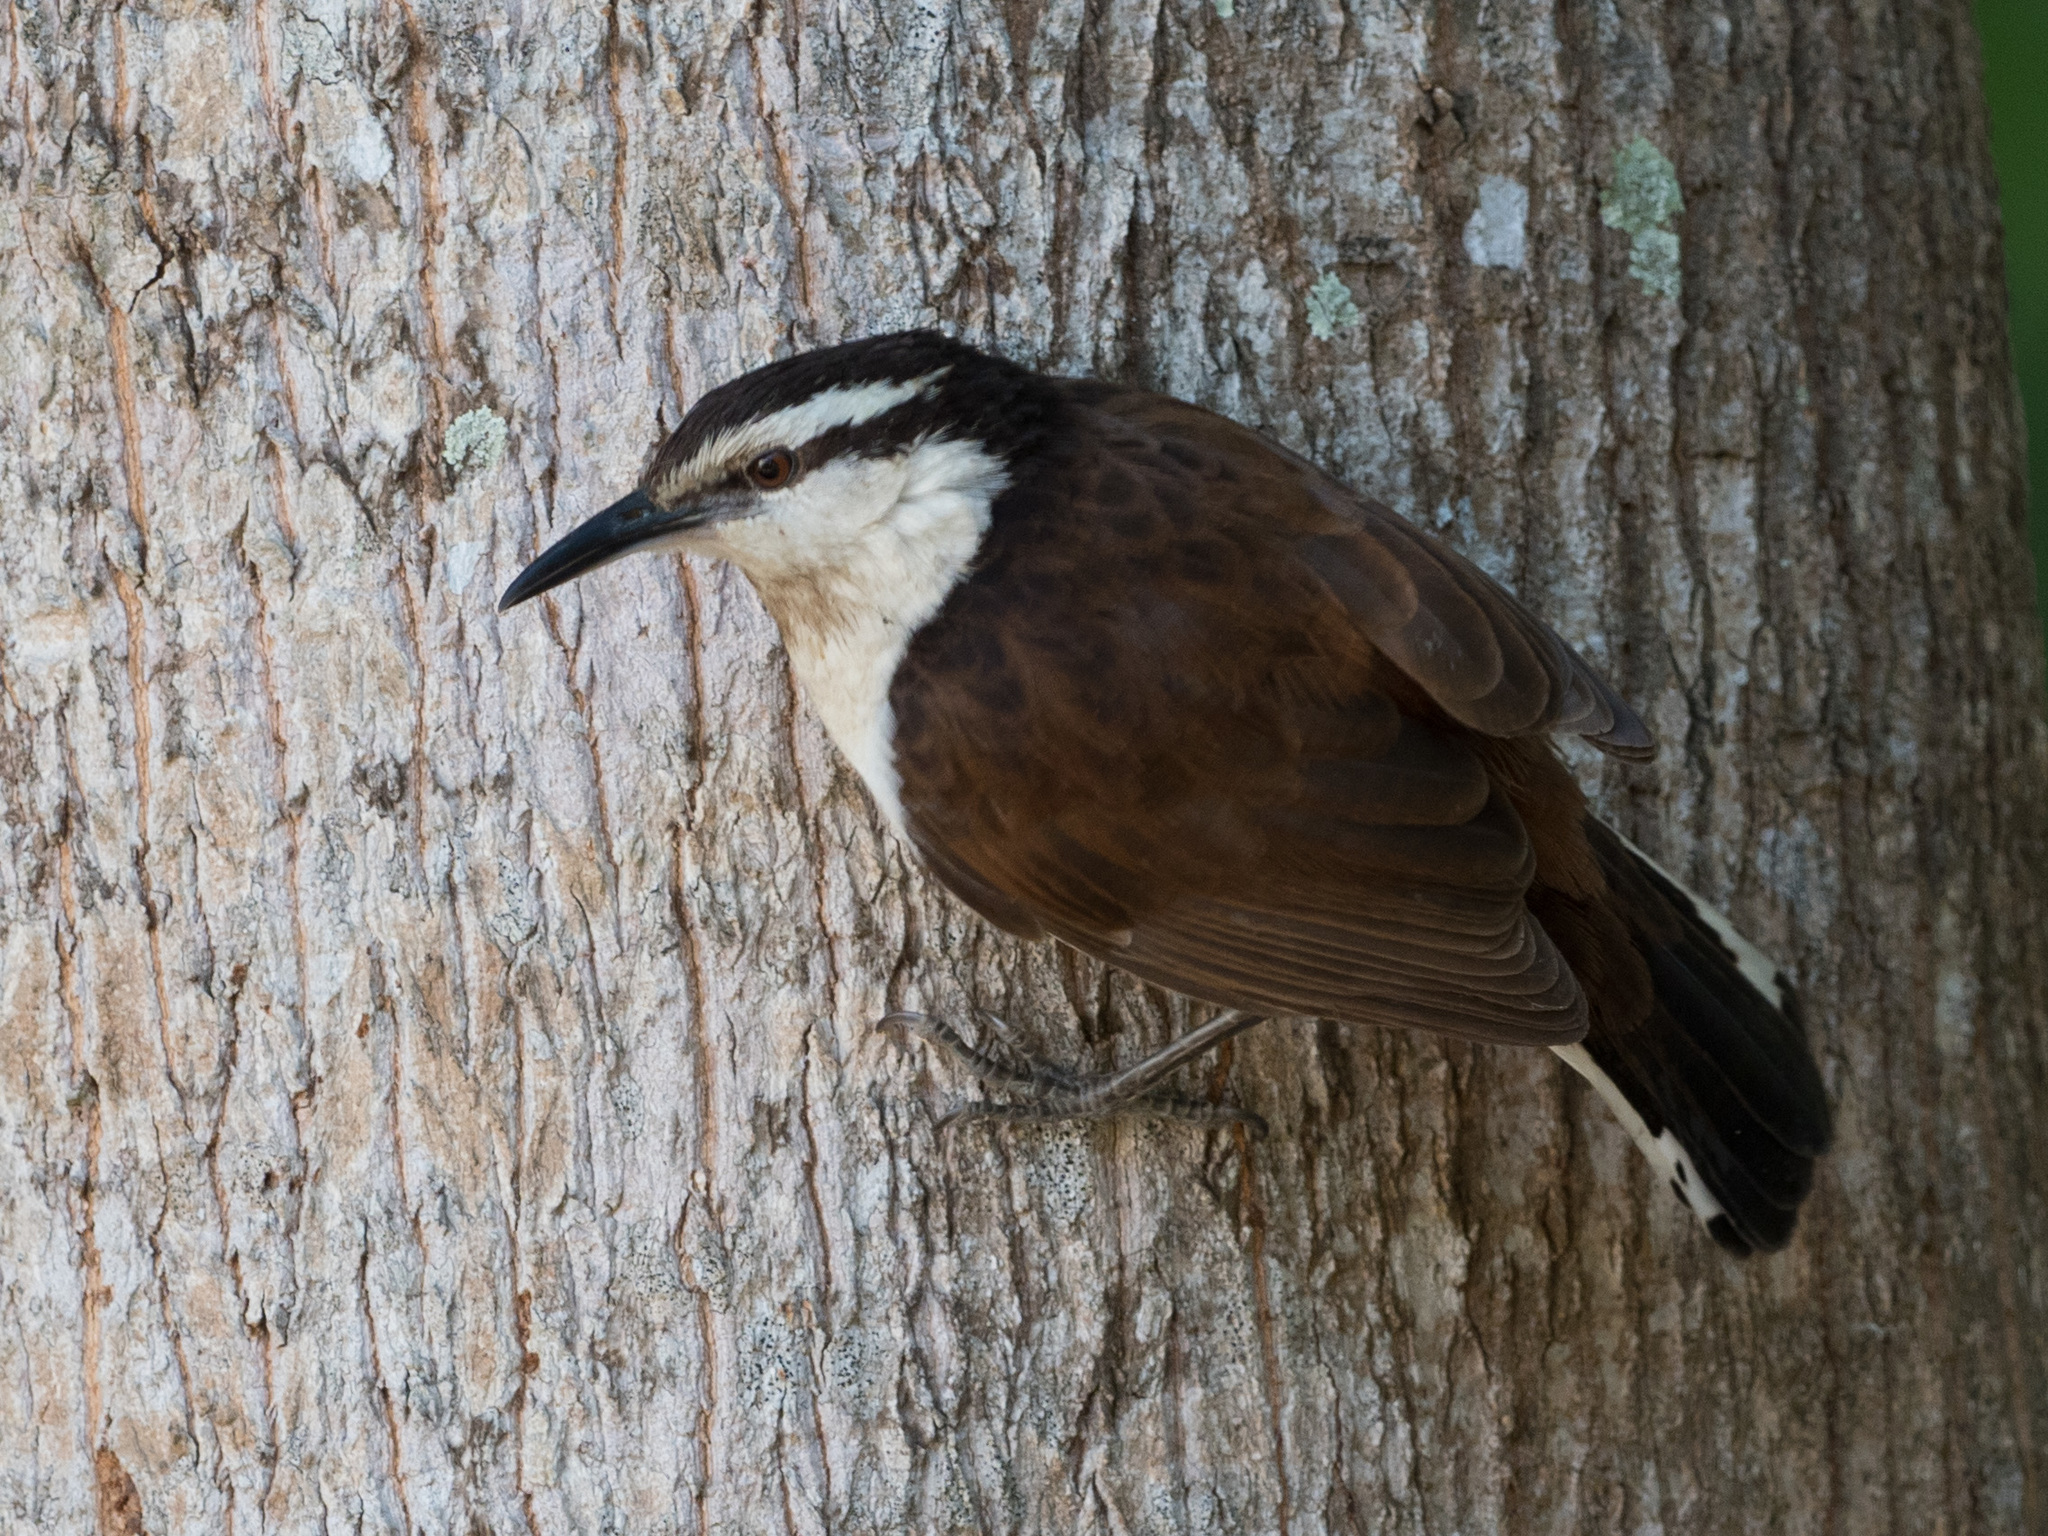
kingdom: Animalia
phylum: Chordata
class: Aves
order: Passeriformes
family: Troglodytidae
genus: Campylorhynchus
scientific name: Campylorhynchus griseus
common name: Bicolored wren
